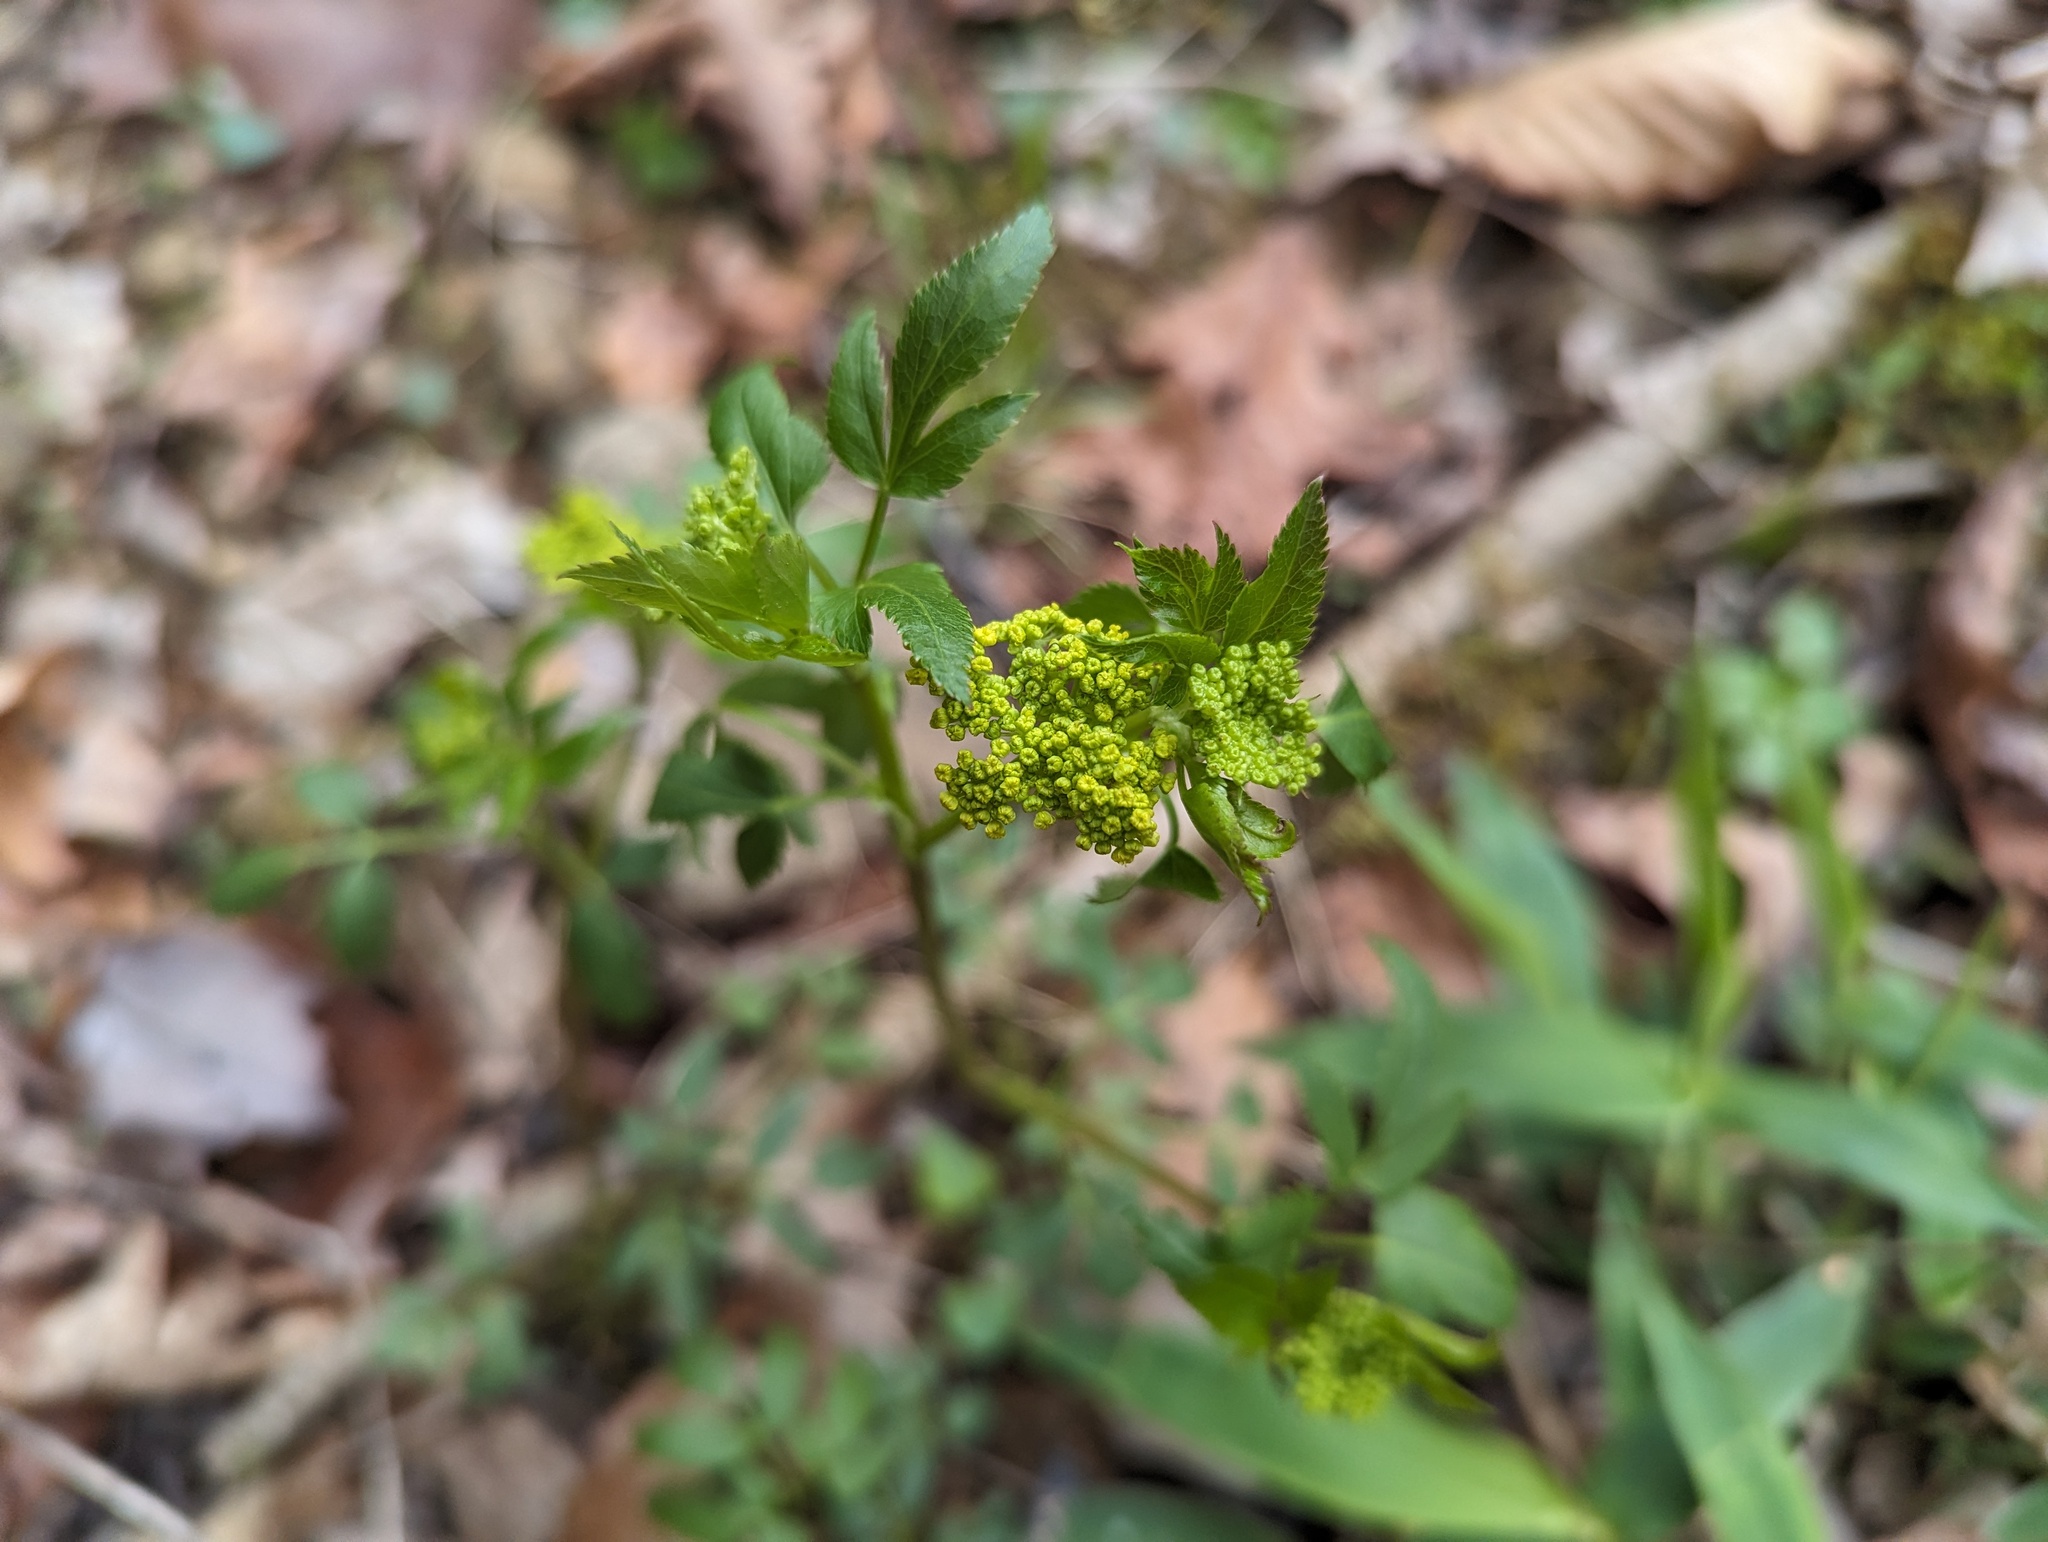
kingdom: Plantae
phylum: Tracheophyta
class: Magnoliopsida
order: Apiales
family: Apiaceae
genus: Zizia
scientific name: Zizia aurea
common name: Golden alexanders
